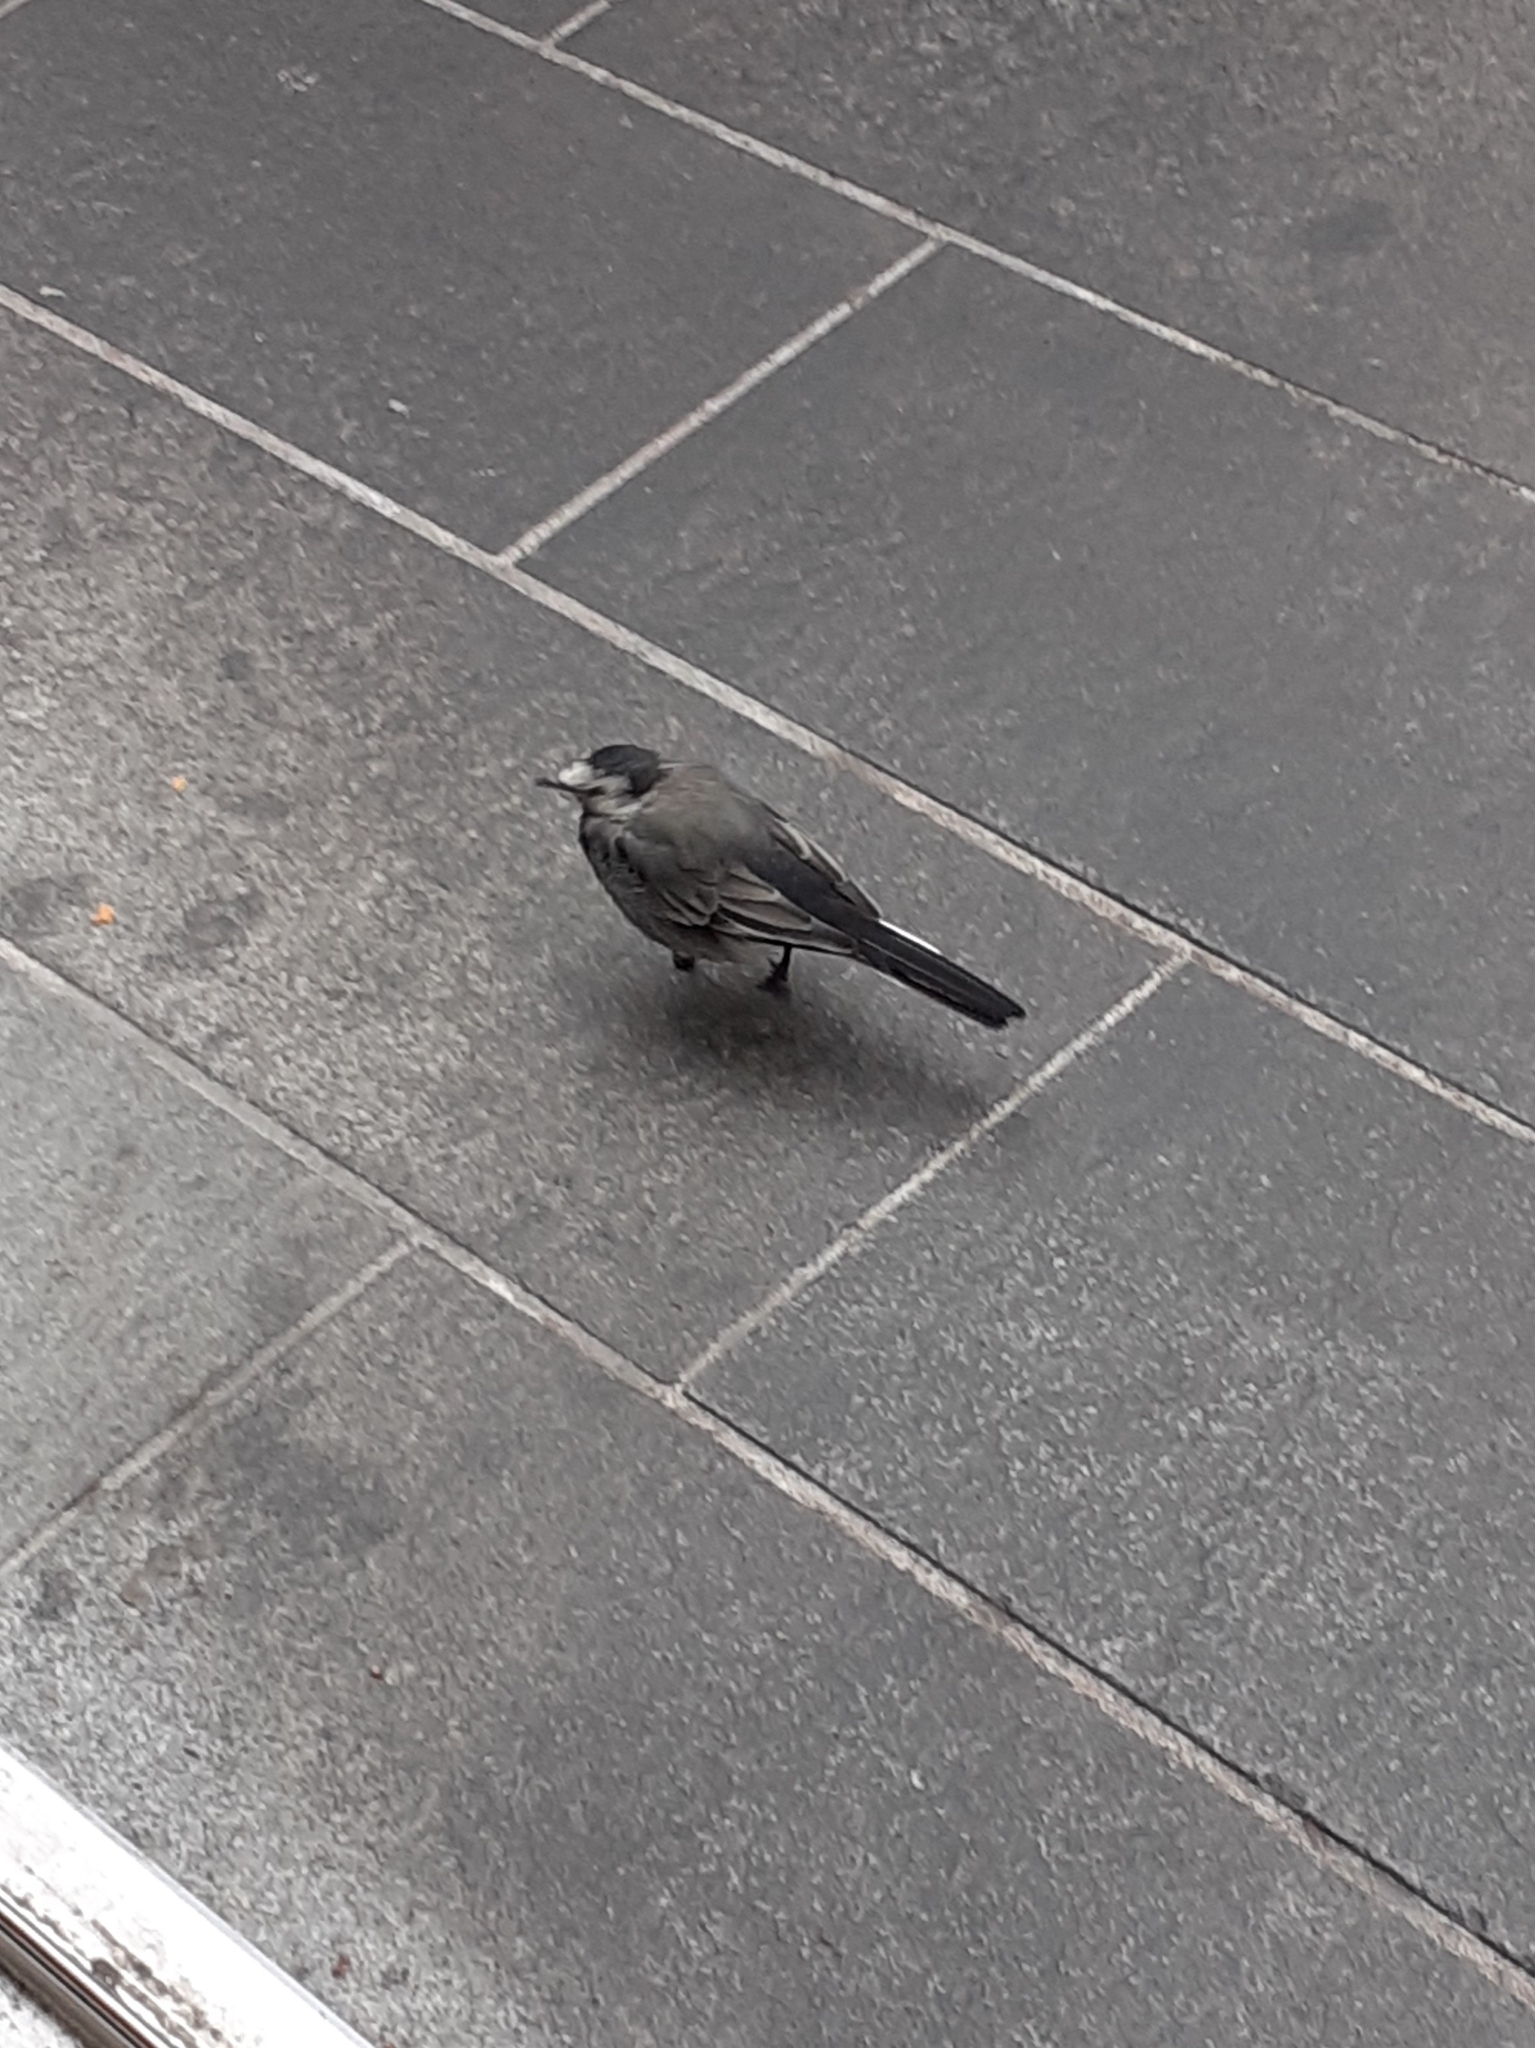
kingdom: Animalia
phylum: Chordata
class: Aves
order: Passeriformes
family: Motacillidae
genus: Motacilla
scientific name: Motacilla alba
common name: White wagtail
